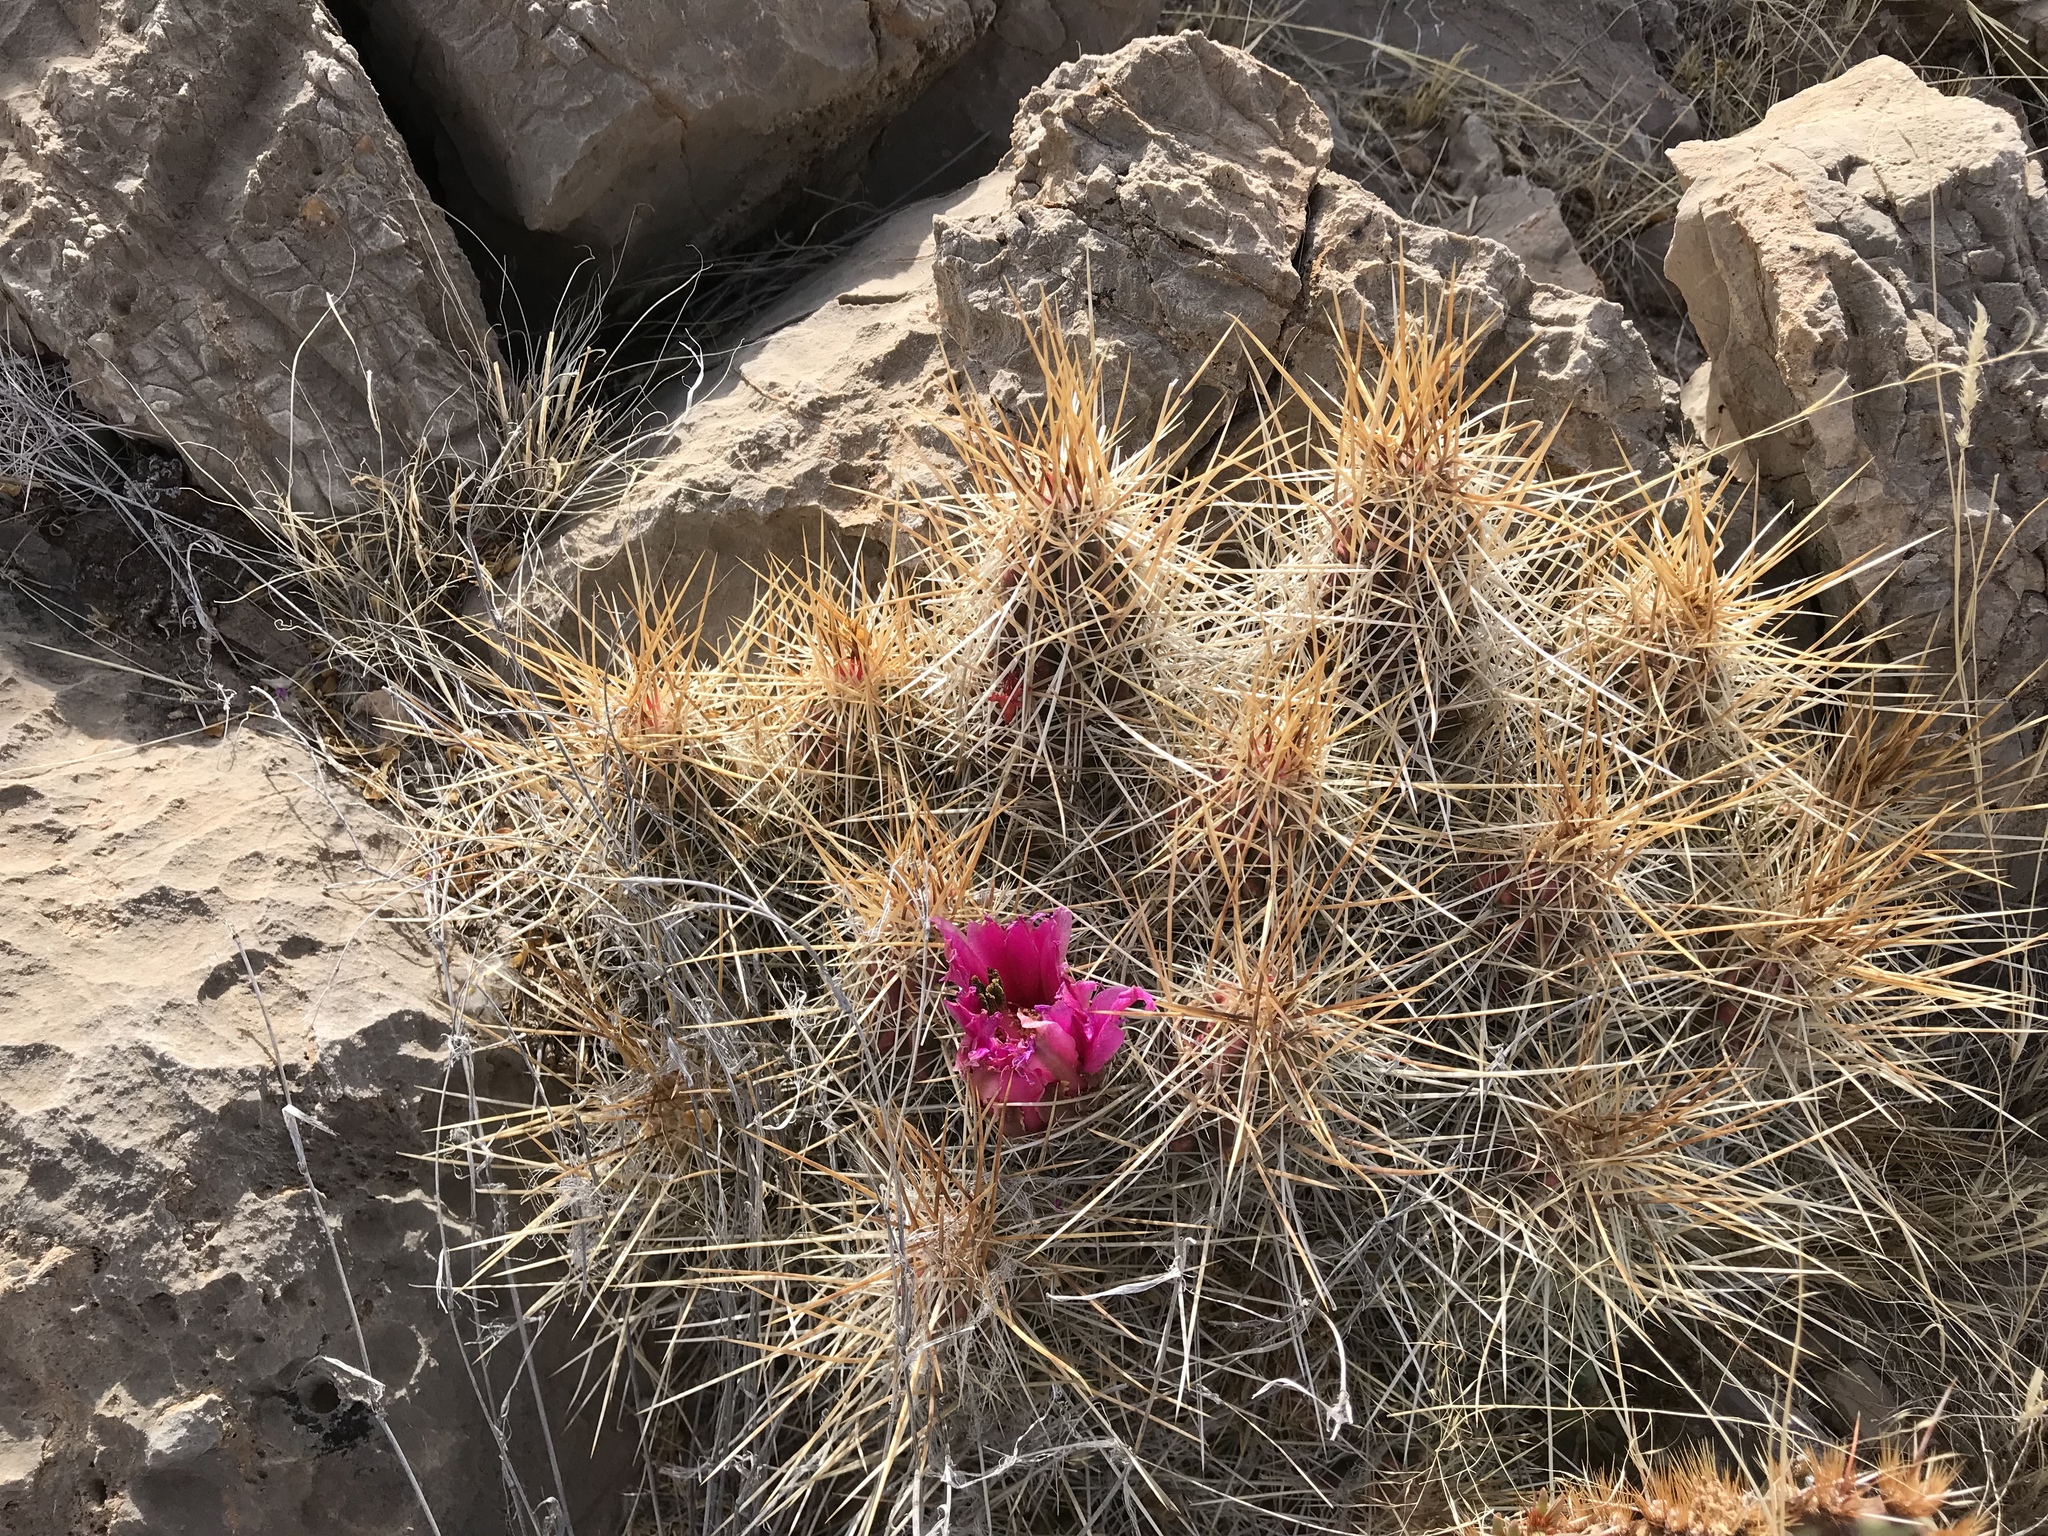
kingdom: Plantae
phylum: Tracheophyta
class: Magnoliopsida
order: Caryophyllales
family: Cactaceae
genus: Echinocereus
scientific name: Echinocereus stramineus
